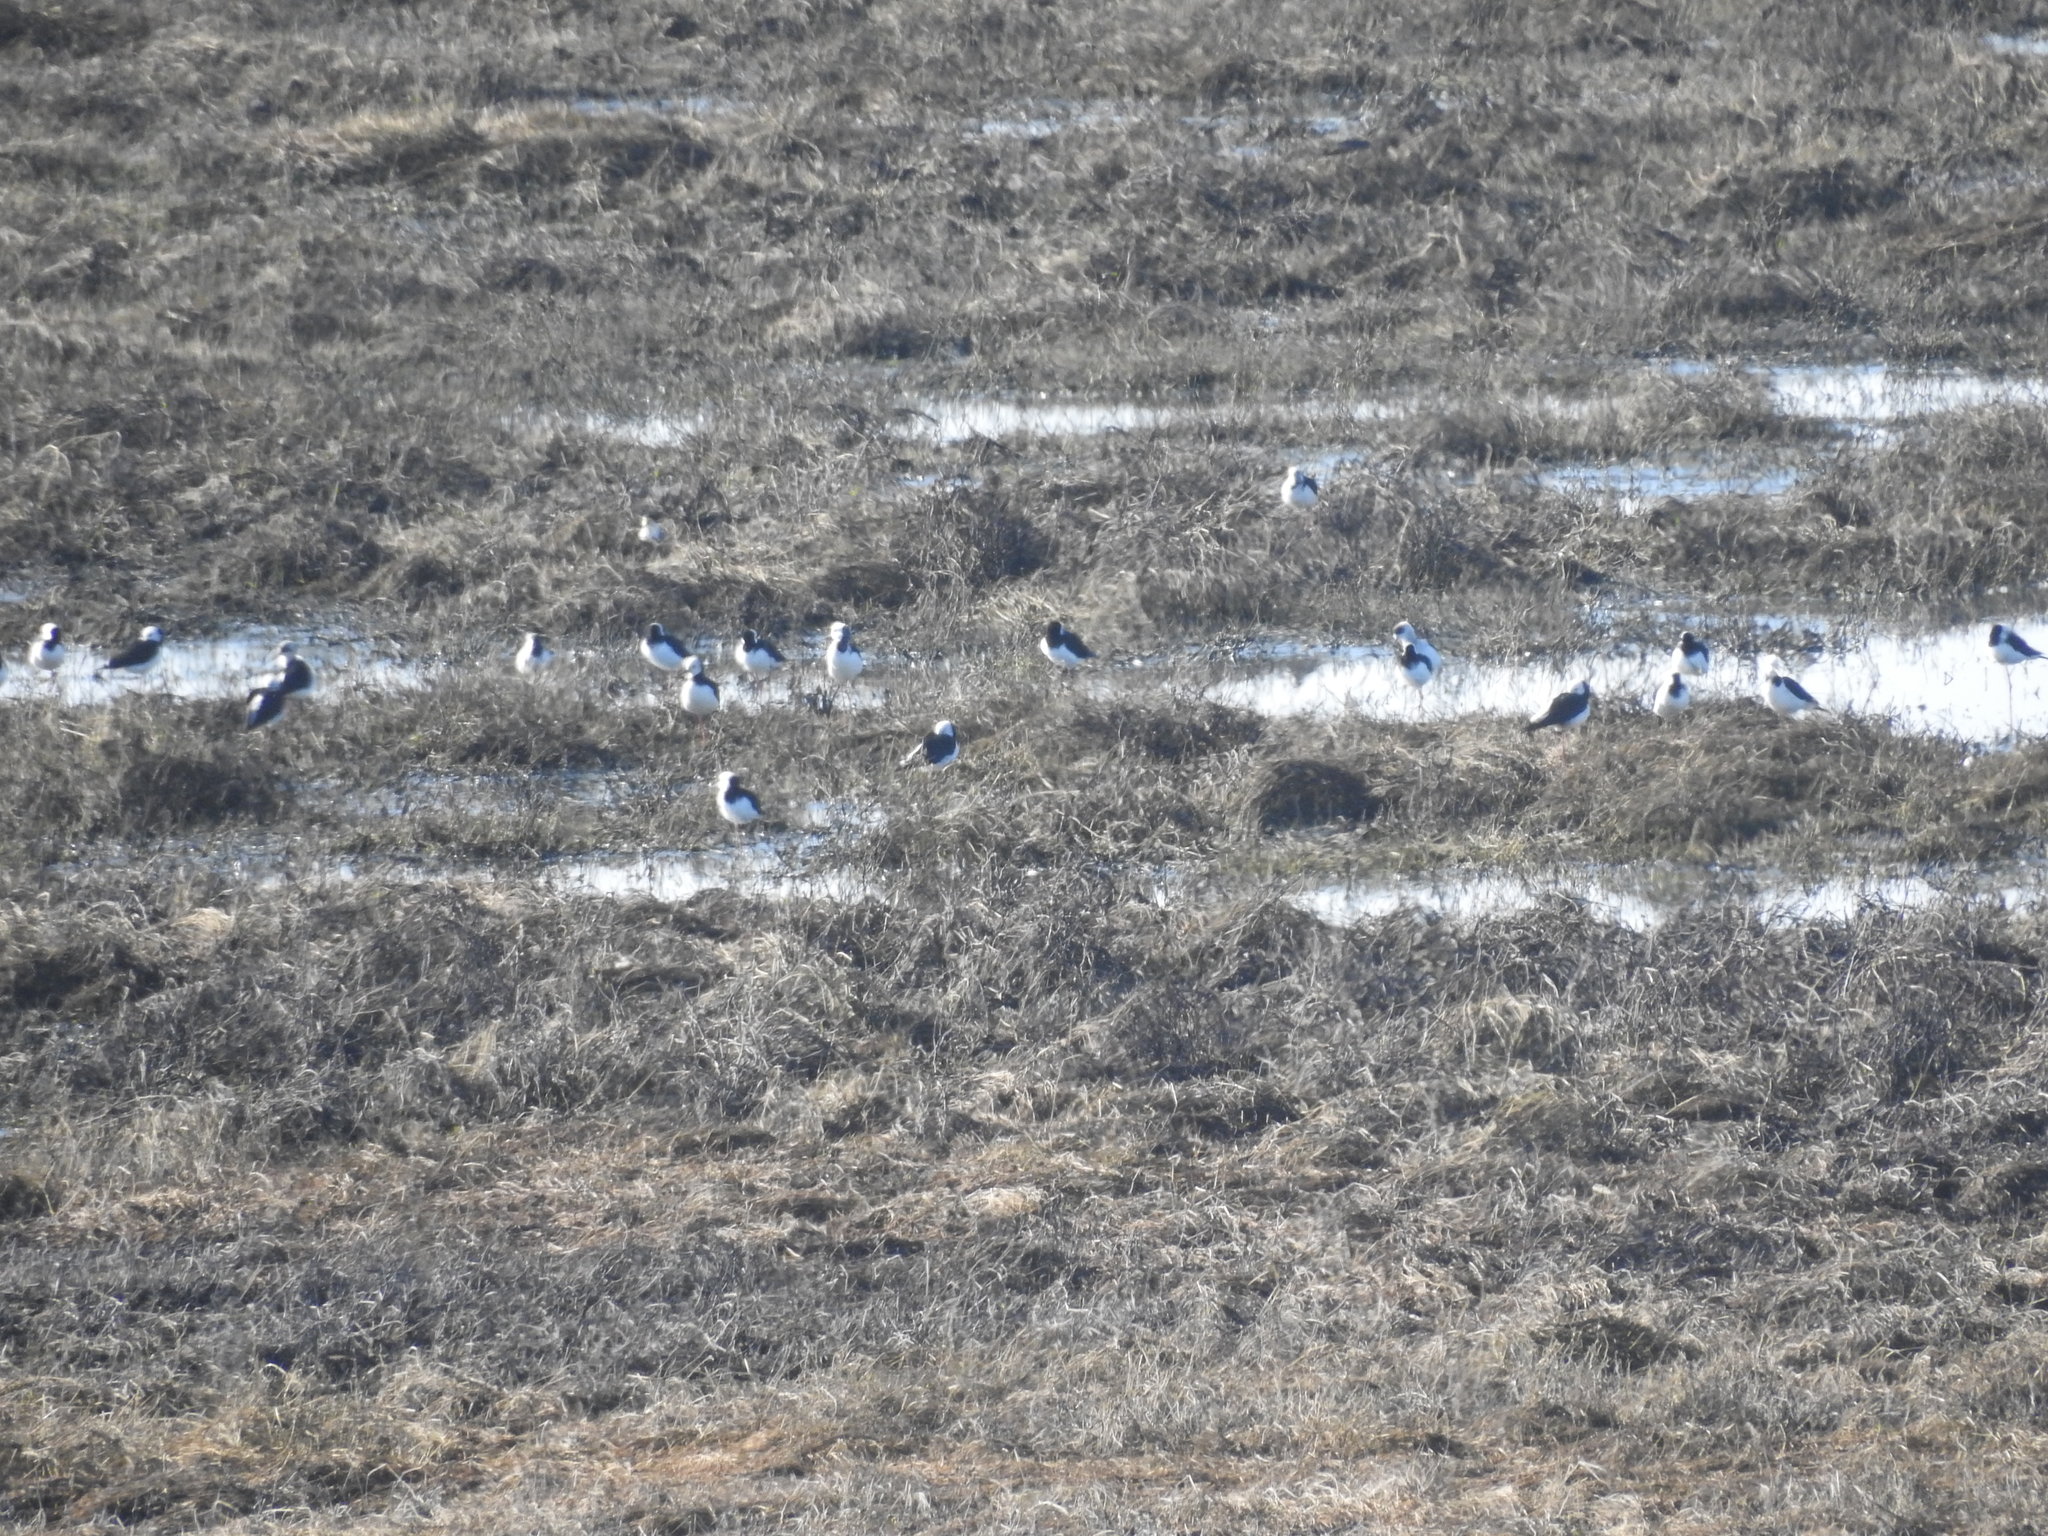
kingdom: Animalia
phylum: Chordata
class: Aves
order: Charadriiformes
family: Recurvirostridae
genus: Himantopus
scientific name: Himantopus leucocephalus
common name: White-headed stilt
